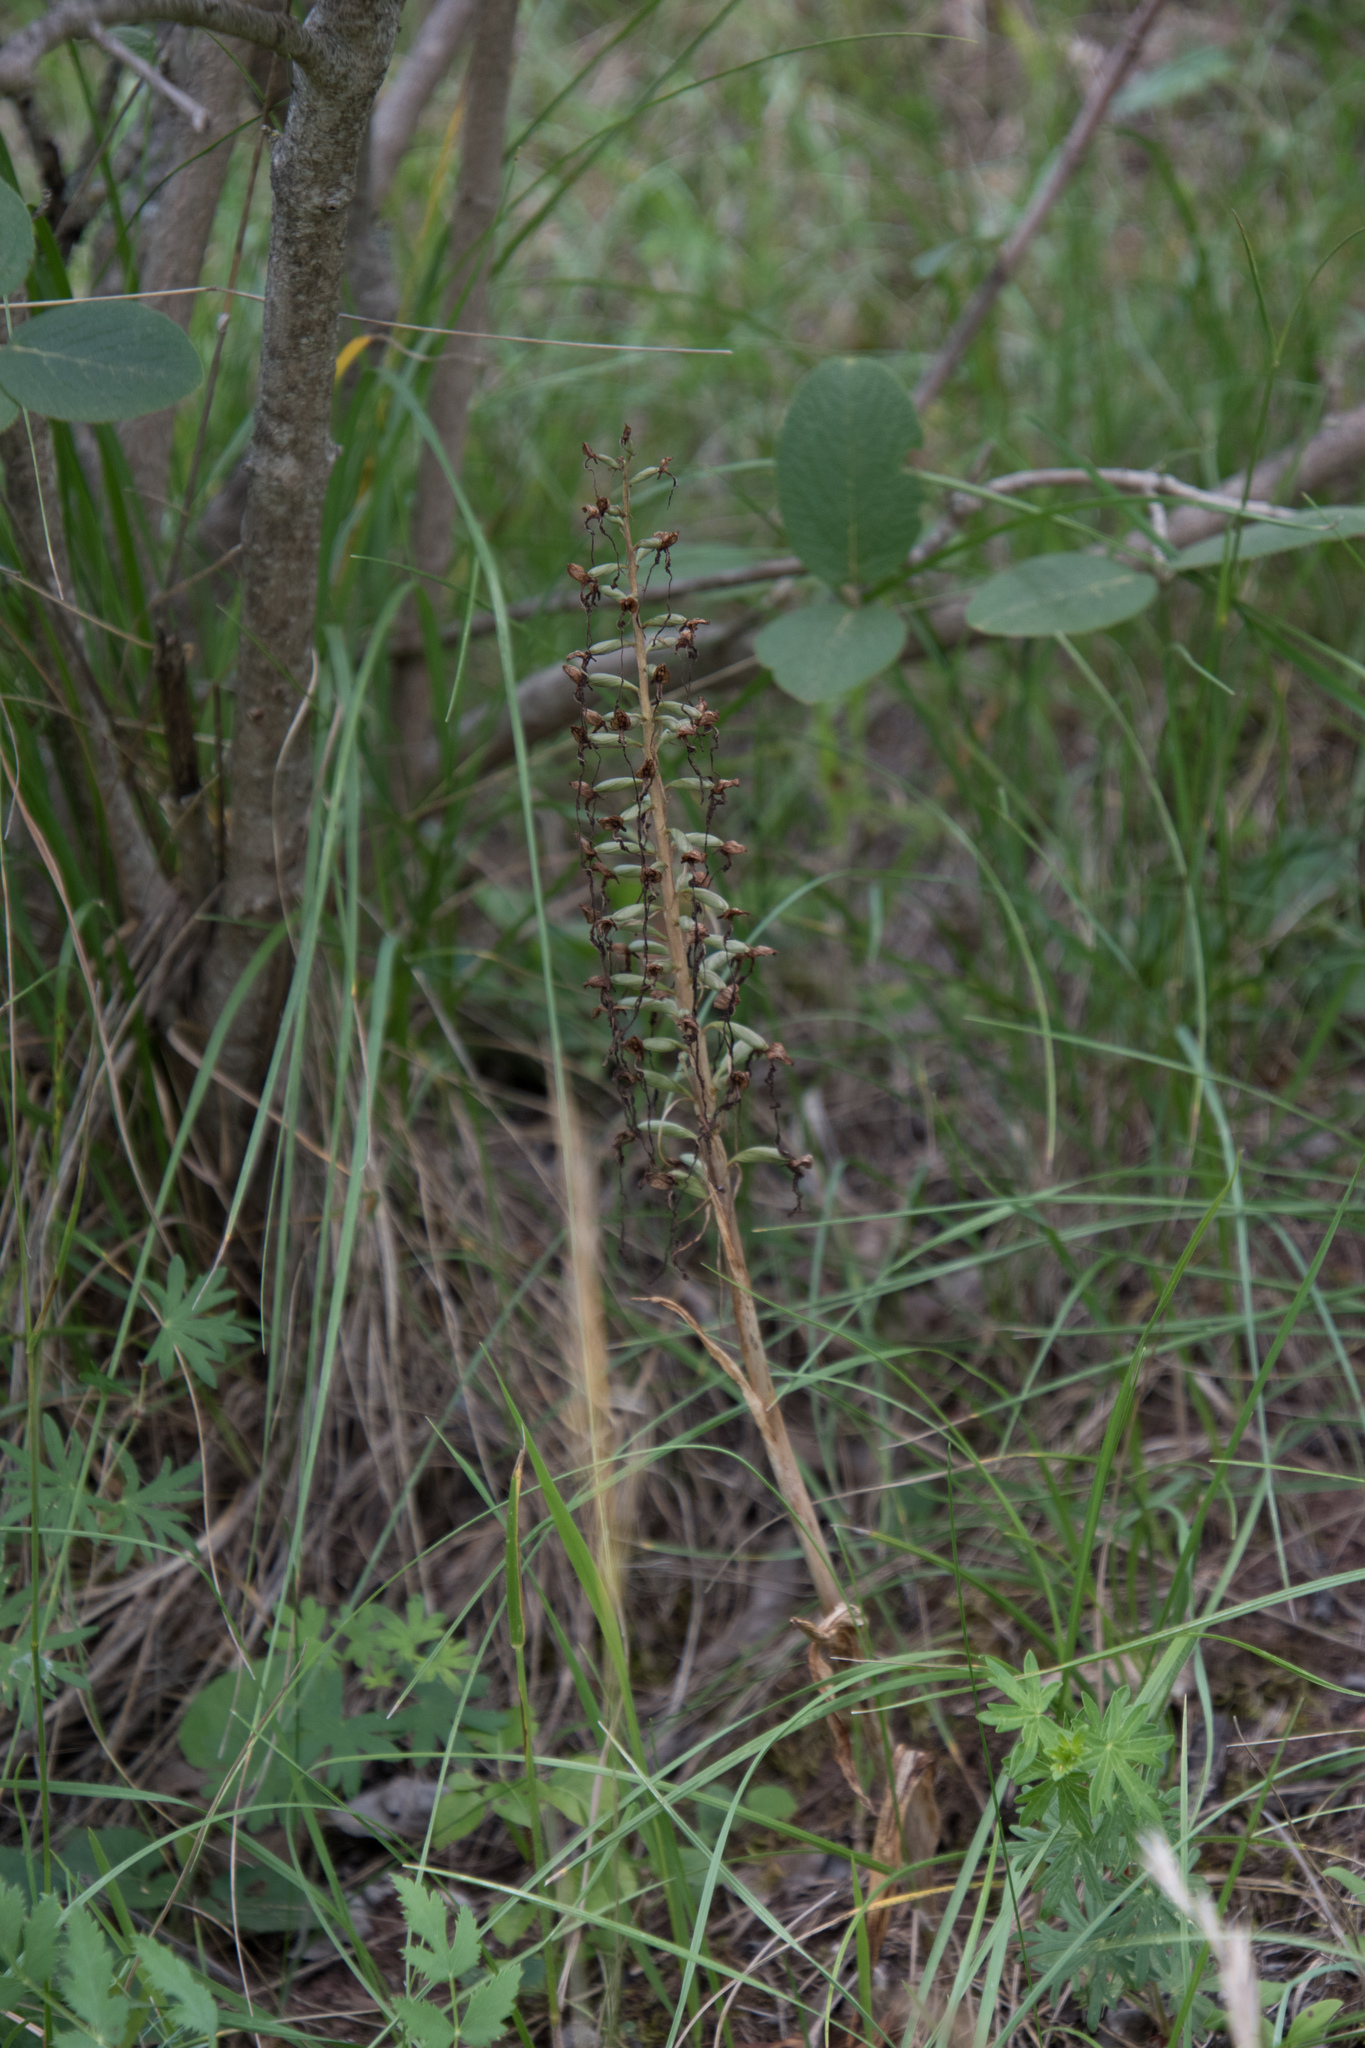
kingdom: Plantae
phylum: Tracheophyta
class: Liliopsida
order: Asparagales
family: Orchidaceae
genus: Himantoglossum
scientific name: Himantoglossum hircinum
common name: Lizard orchid
